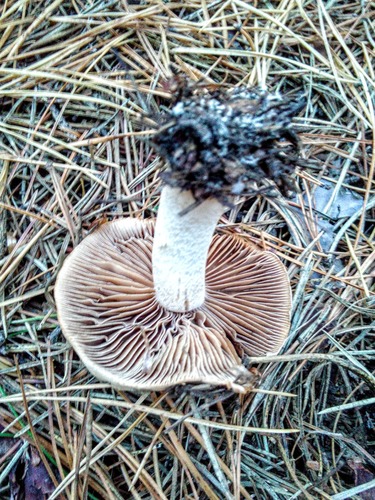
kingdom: Fungi
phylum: Basidiomycota
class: Agaricomycetes
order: Agaricales
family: Cortinariaceae
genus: Cortinarius
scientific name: Cortinarius
